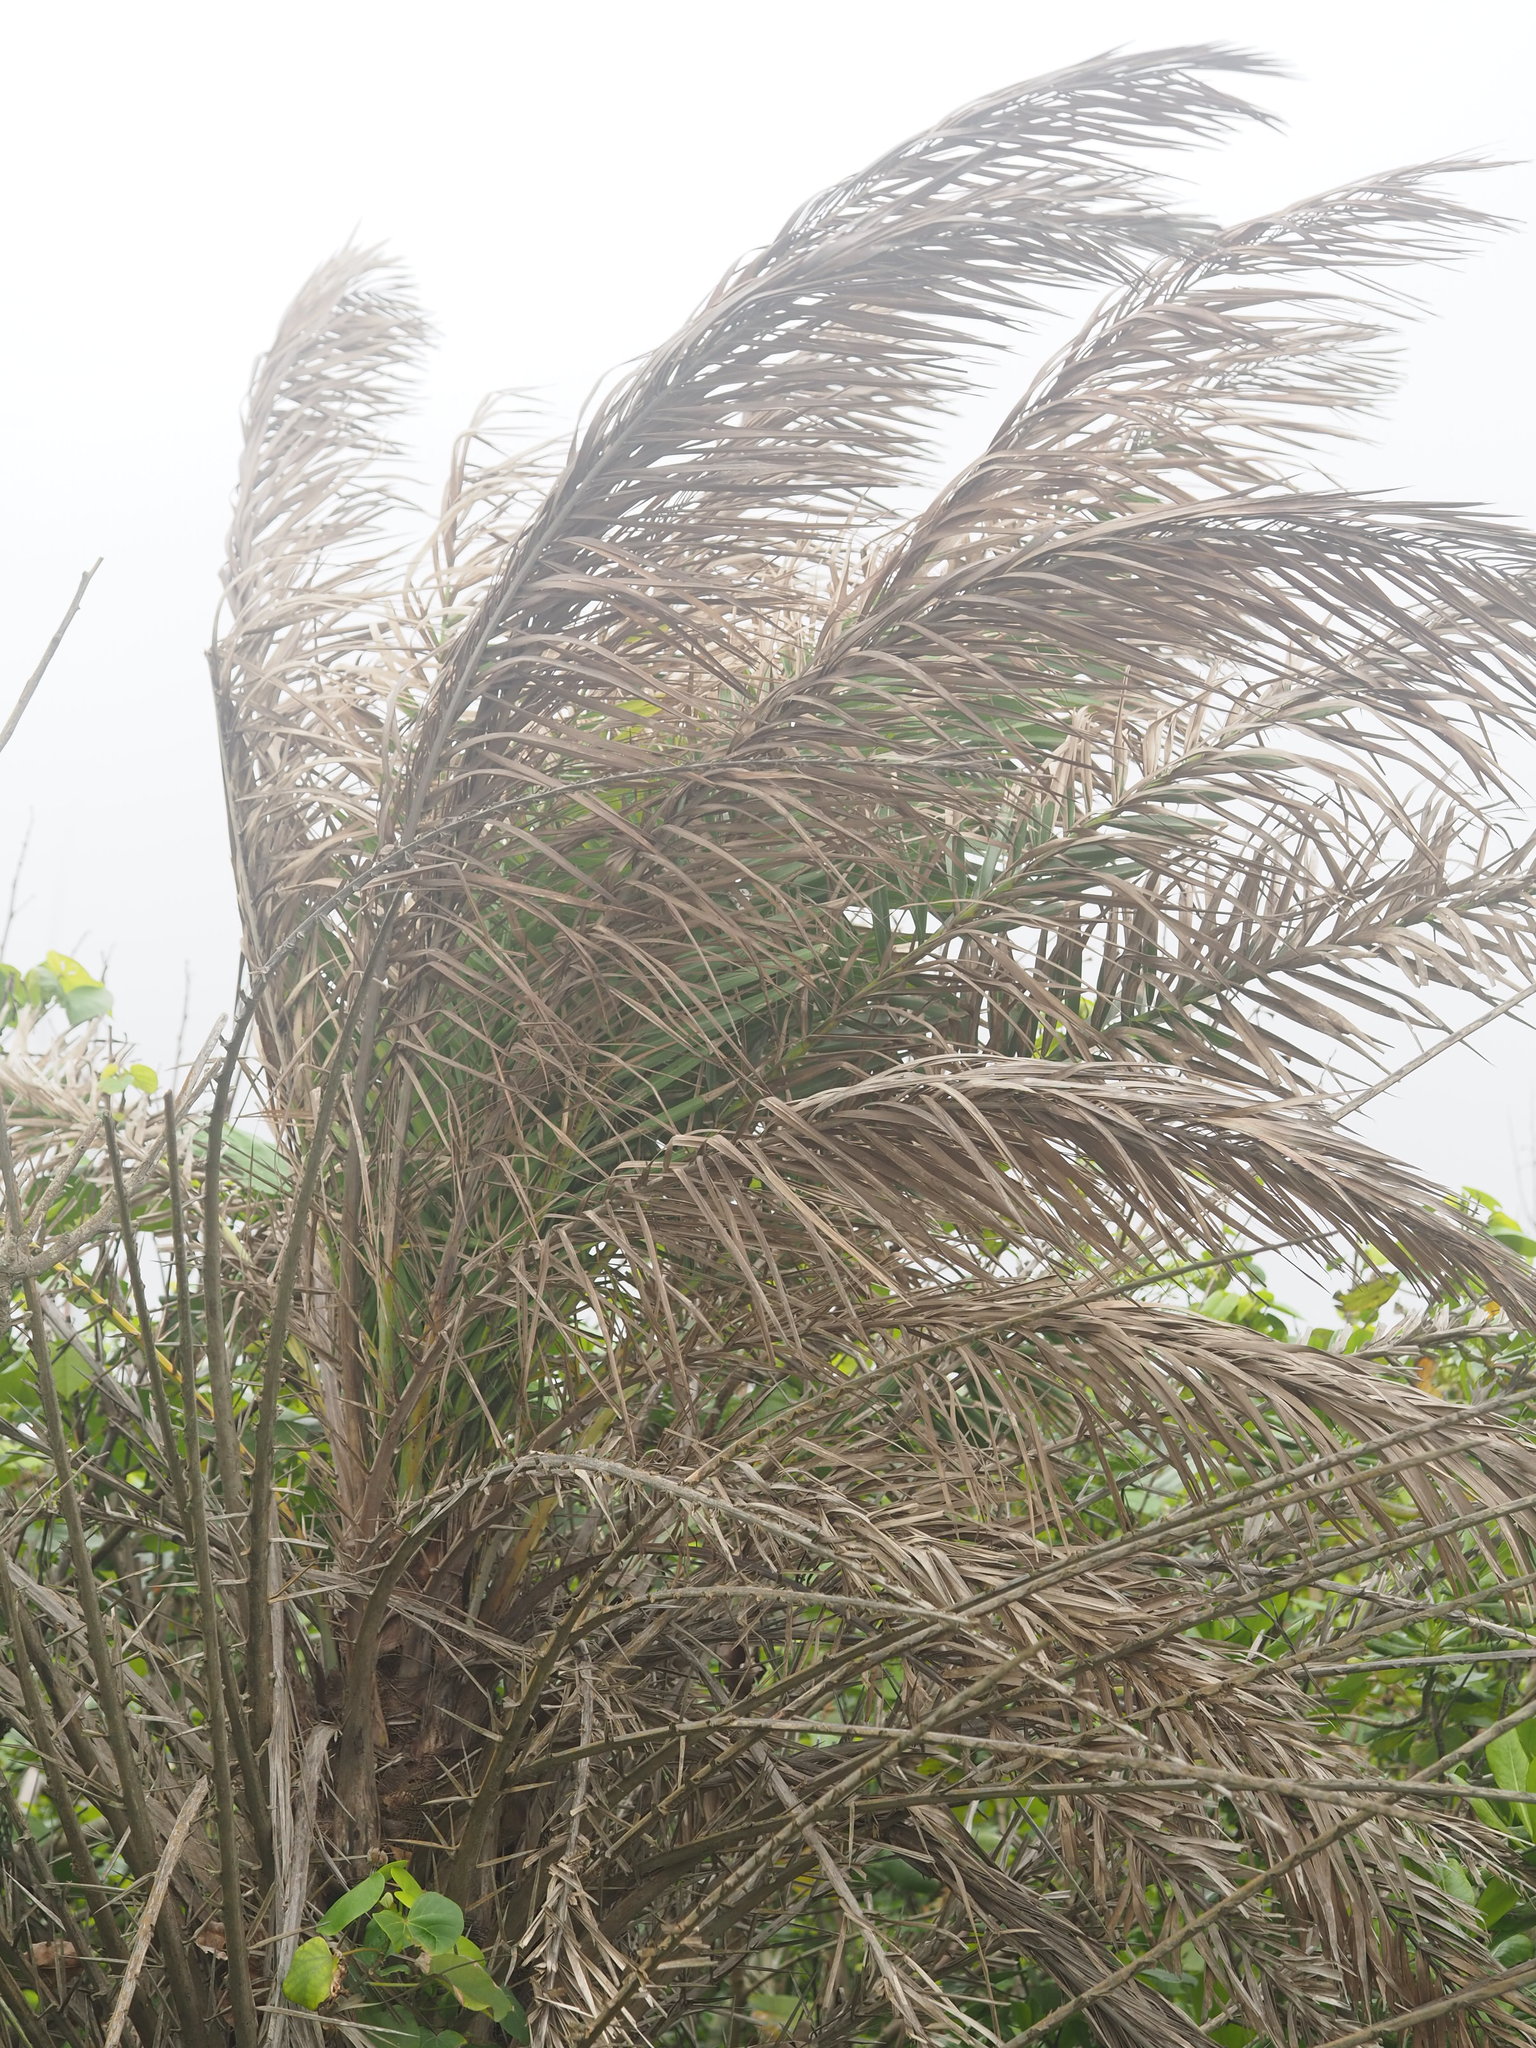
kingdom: Plantae
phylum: Tracheophyta
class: Liliopsida
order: Arecales
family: Arecaceae
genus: Phoenix
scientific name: Phoenix loureiroi
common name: Loureiro's palm
